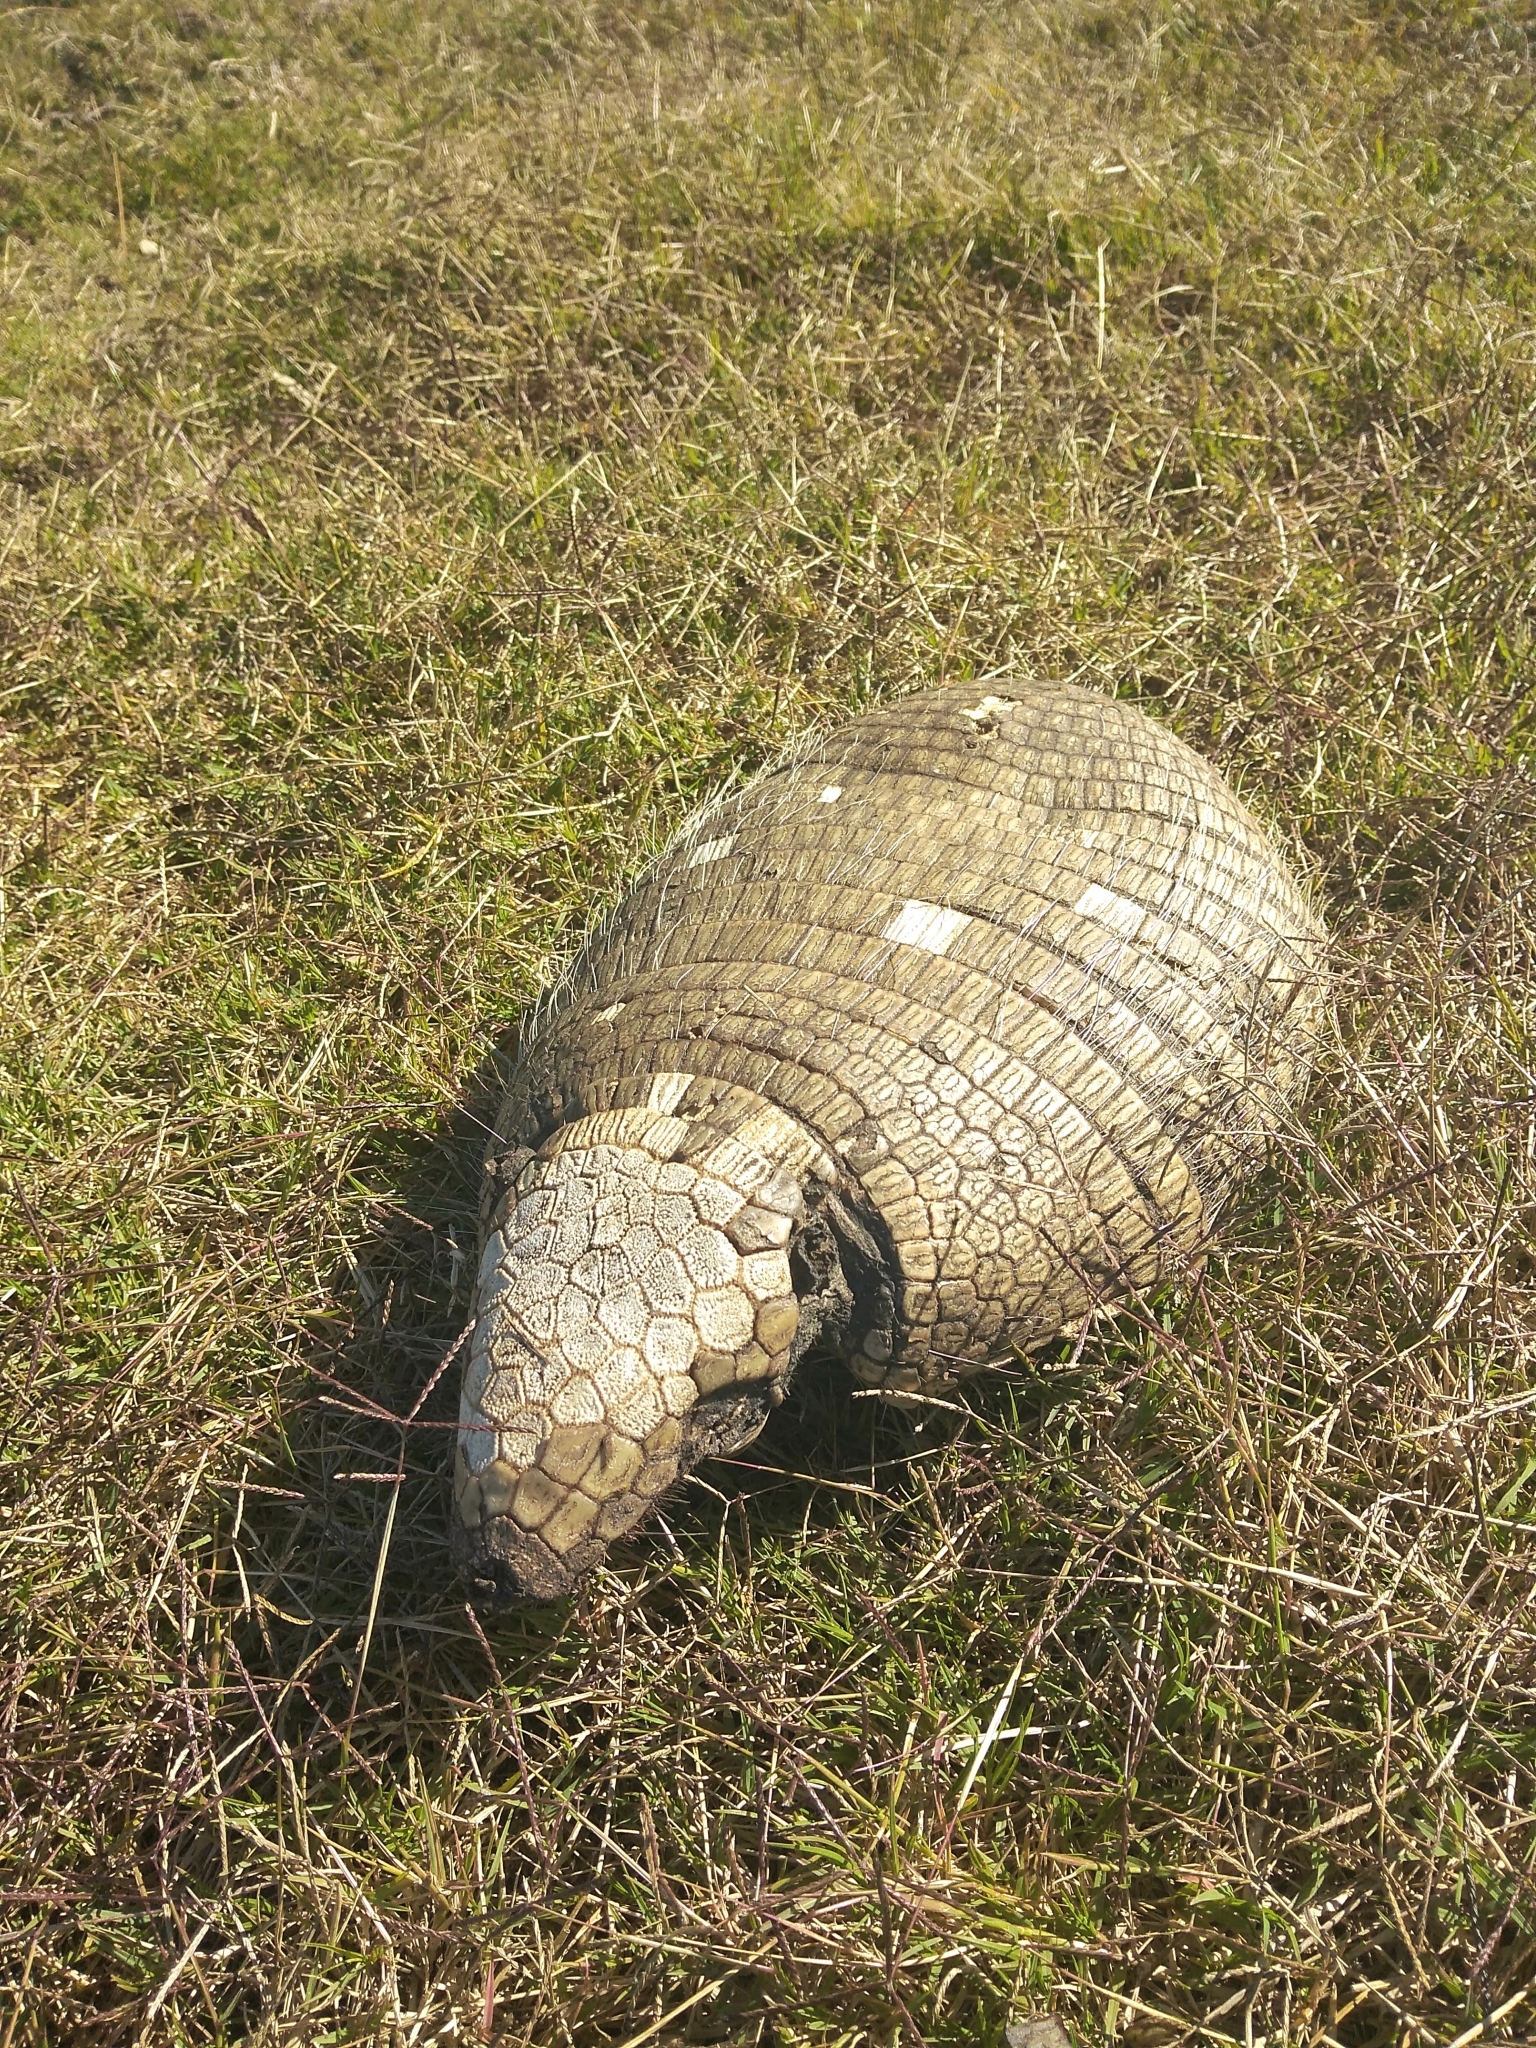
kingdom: Animalia
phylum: Chordata
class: Mammalia
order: Cingulata
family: Dasypodidae
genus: Euphractus
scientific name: Euphractus sexcinctus
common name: Six-banded armadillo
